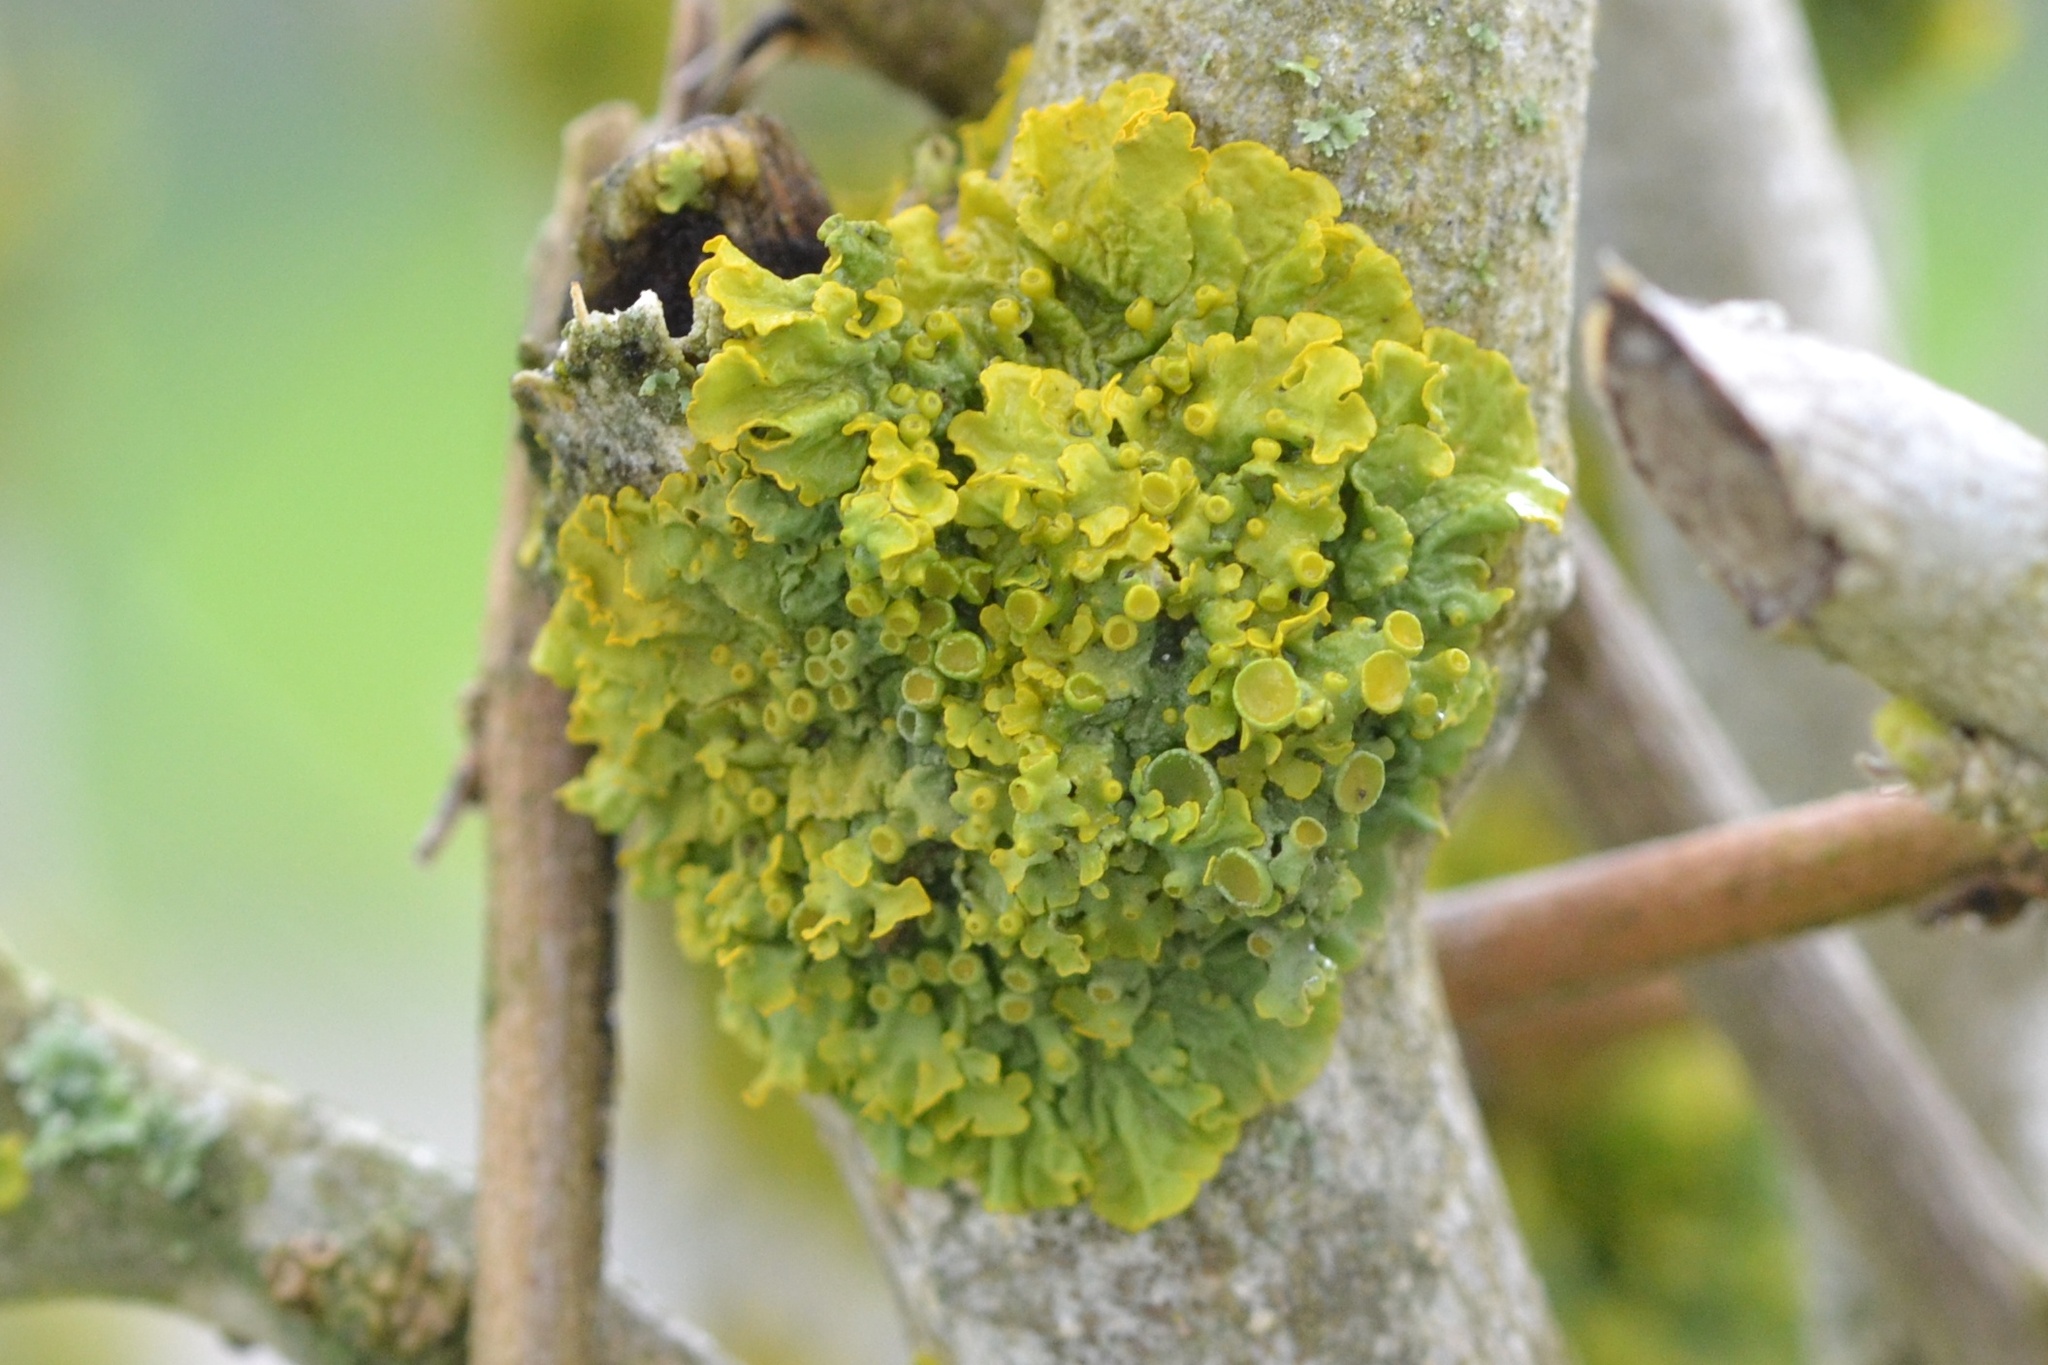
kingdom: Fungi
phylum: Ascomycota
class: Lecanoromycetes
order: Teloschistales
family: Teloschistaceae
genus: Xanthoria
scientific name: Xanthoria parietina
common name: Common orange lichen
